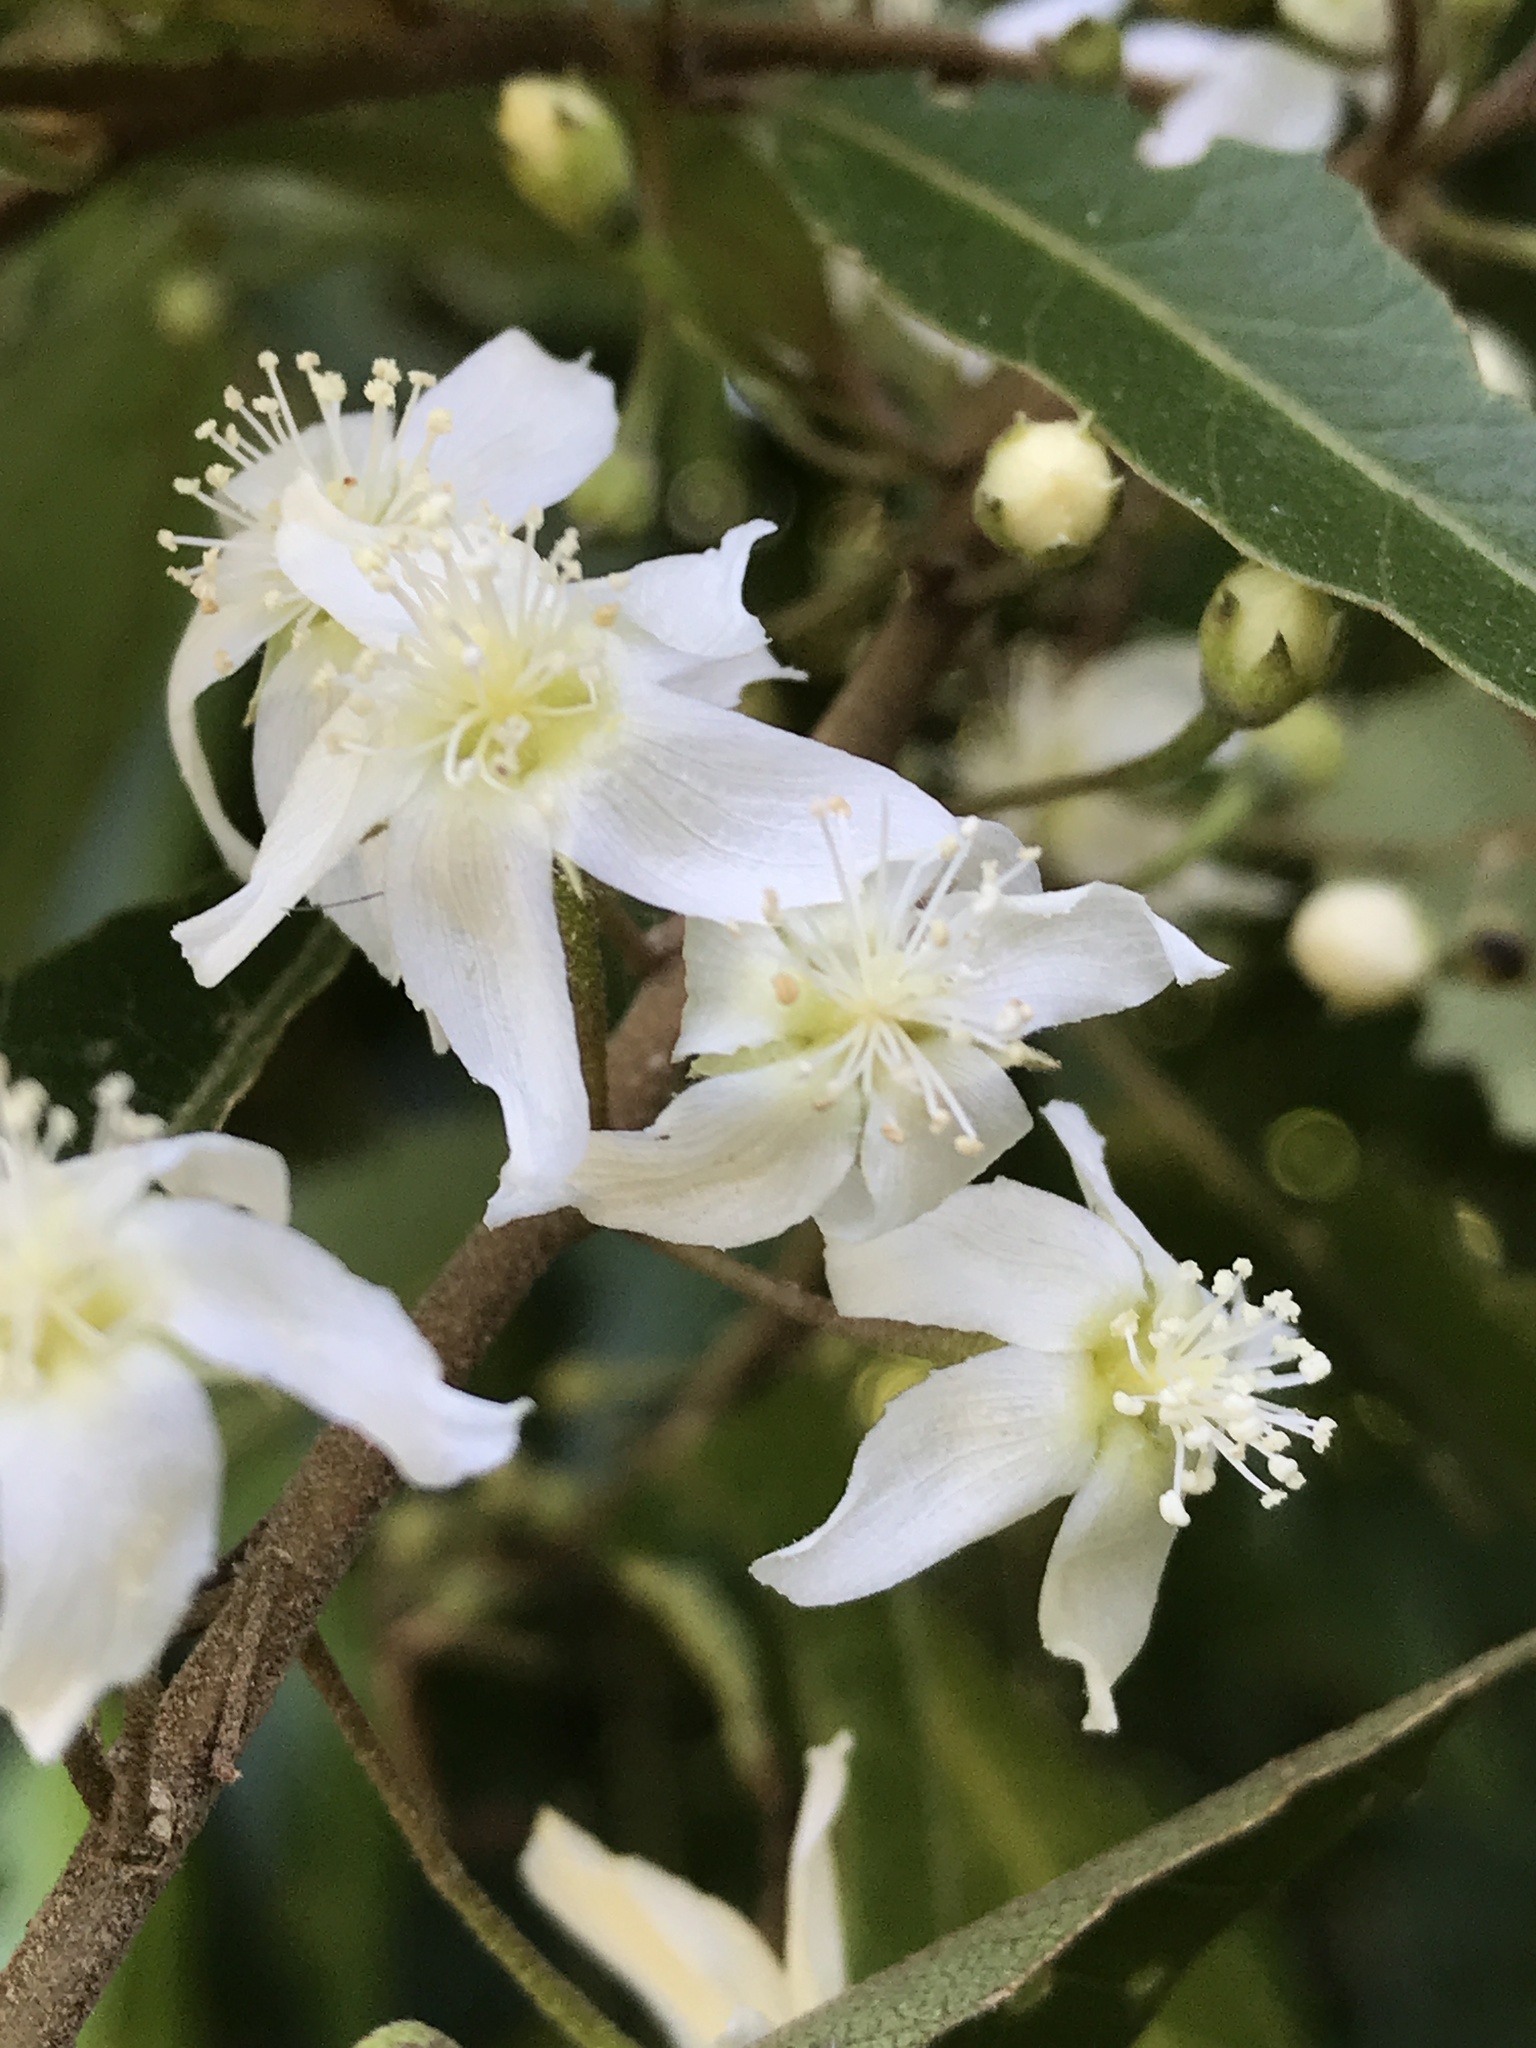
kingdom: Plantae
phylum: Tracheophyta
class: Magnoliopsida
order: Malvales
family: Malvaceae
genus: Hoheria
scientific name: Hoheria sexstylosa
